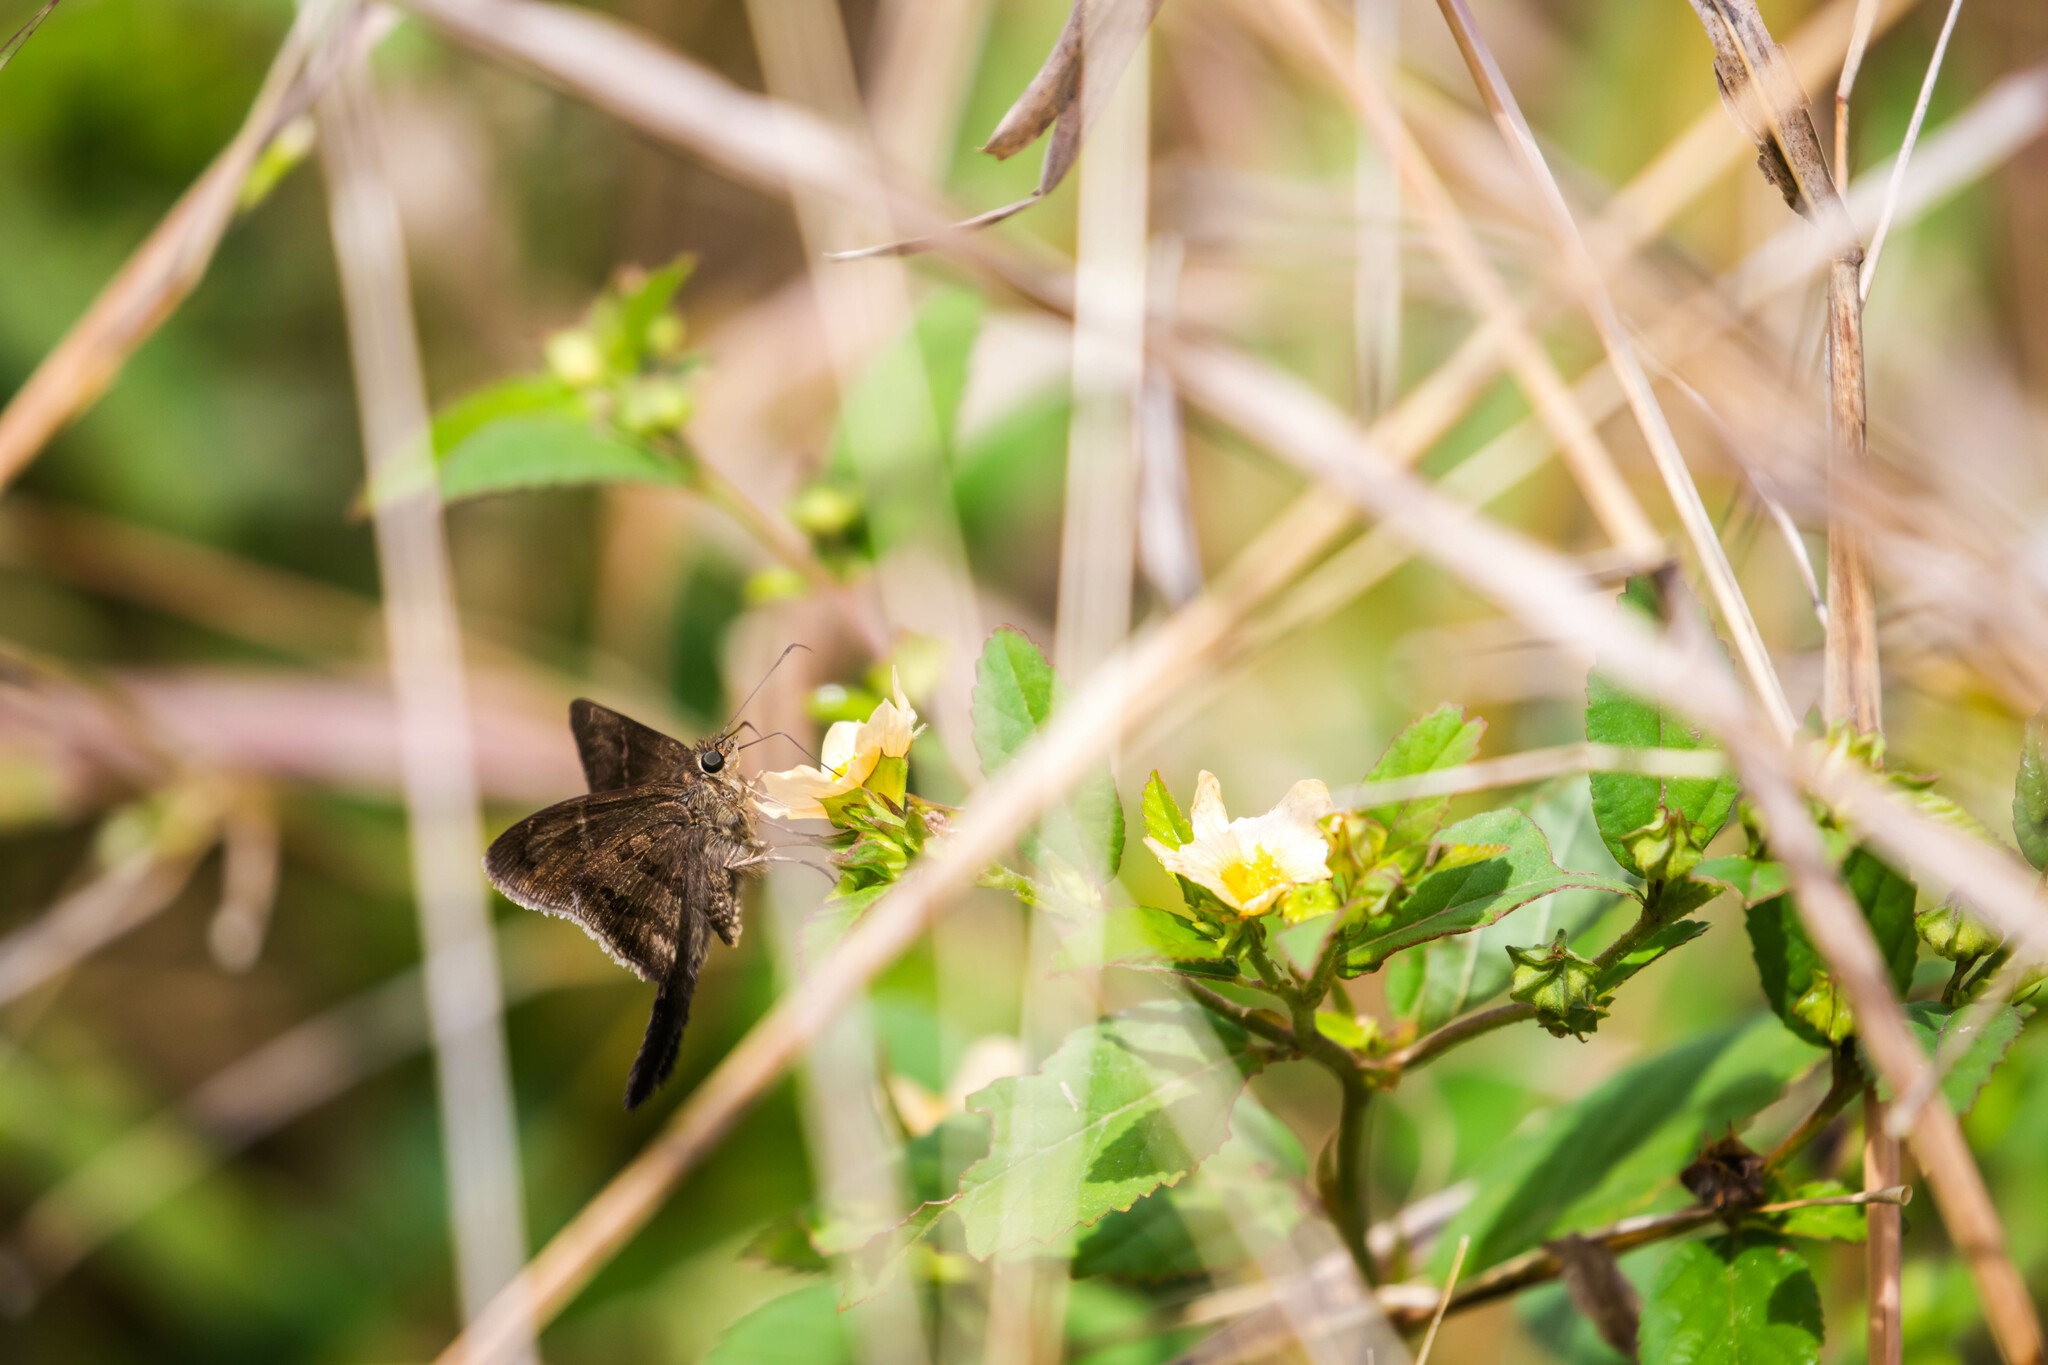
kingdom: Animalia
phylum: Arthropoda
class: Insecta
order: Lepidoptera
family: Hesperiidae
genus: Urbanus
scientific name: Urbanus simplicius
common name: Plain longtail
